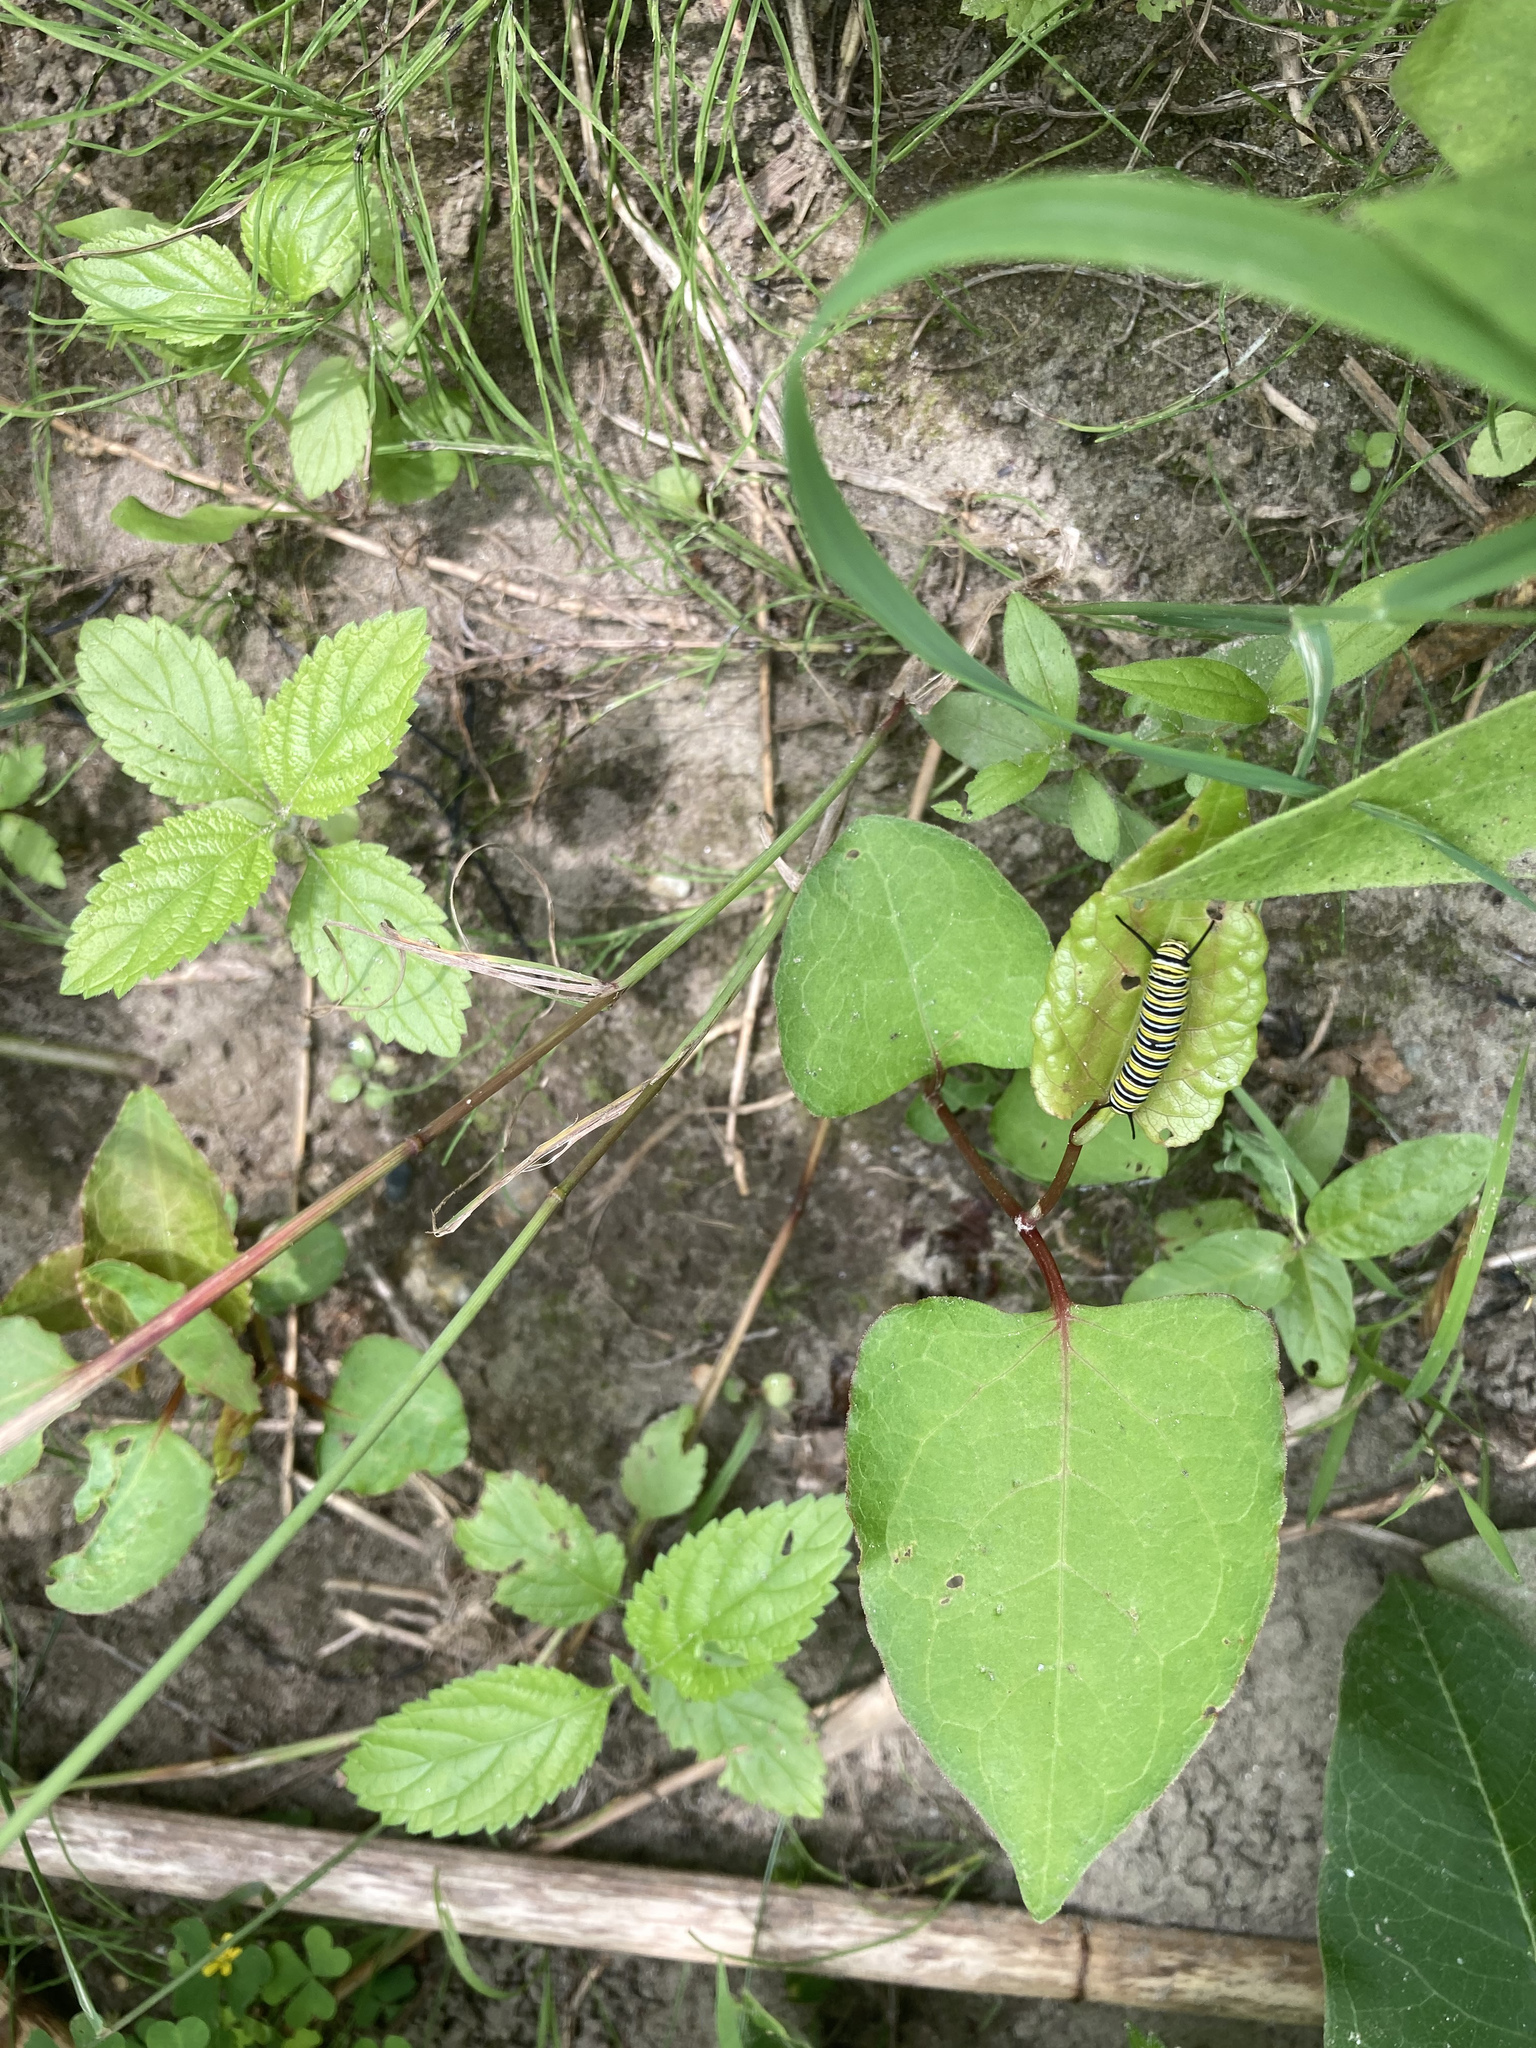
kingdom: Animalia
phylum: Arthropoda
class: Insecta
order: Lepidoptera
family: Nymphalidae
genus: Danaus
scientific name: Danaus plexippus
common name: Monarch
